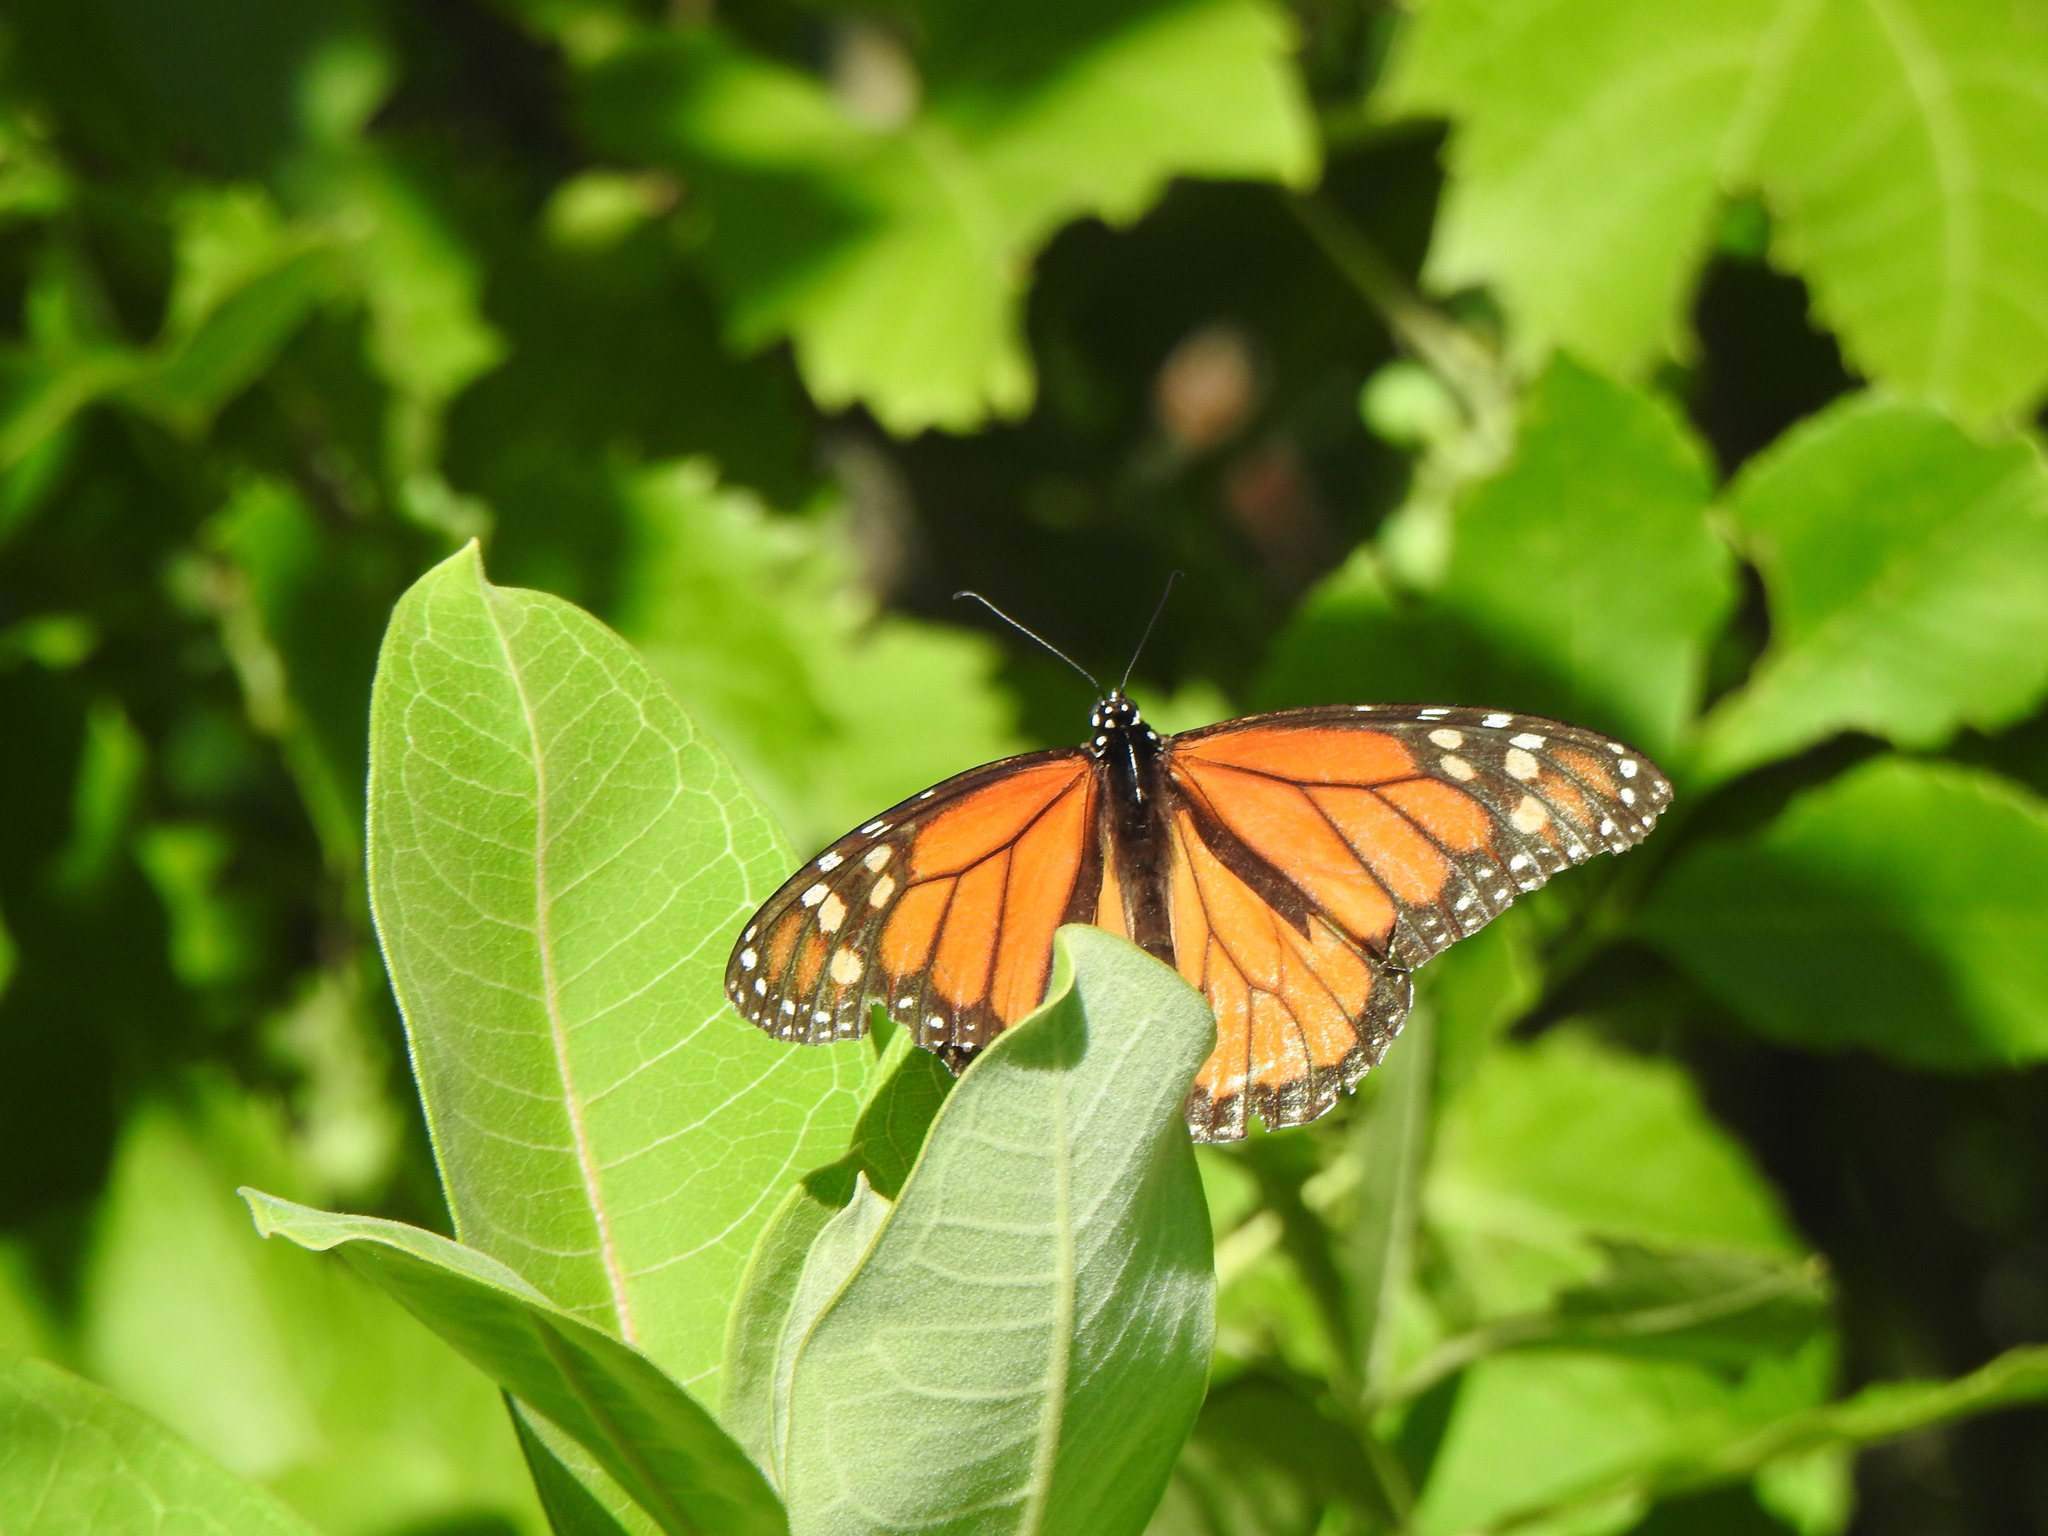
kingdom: Animalia
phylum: Arthropoda
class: Insecta
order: Lepidoptera
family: Nymphalidae
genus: Danaus
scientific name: Danaus plexippus
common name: Monarch
